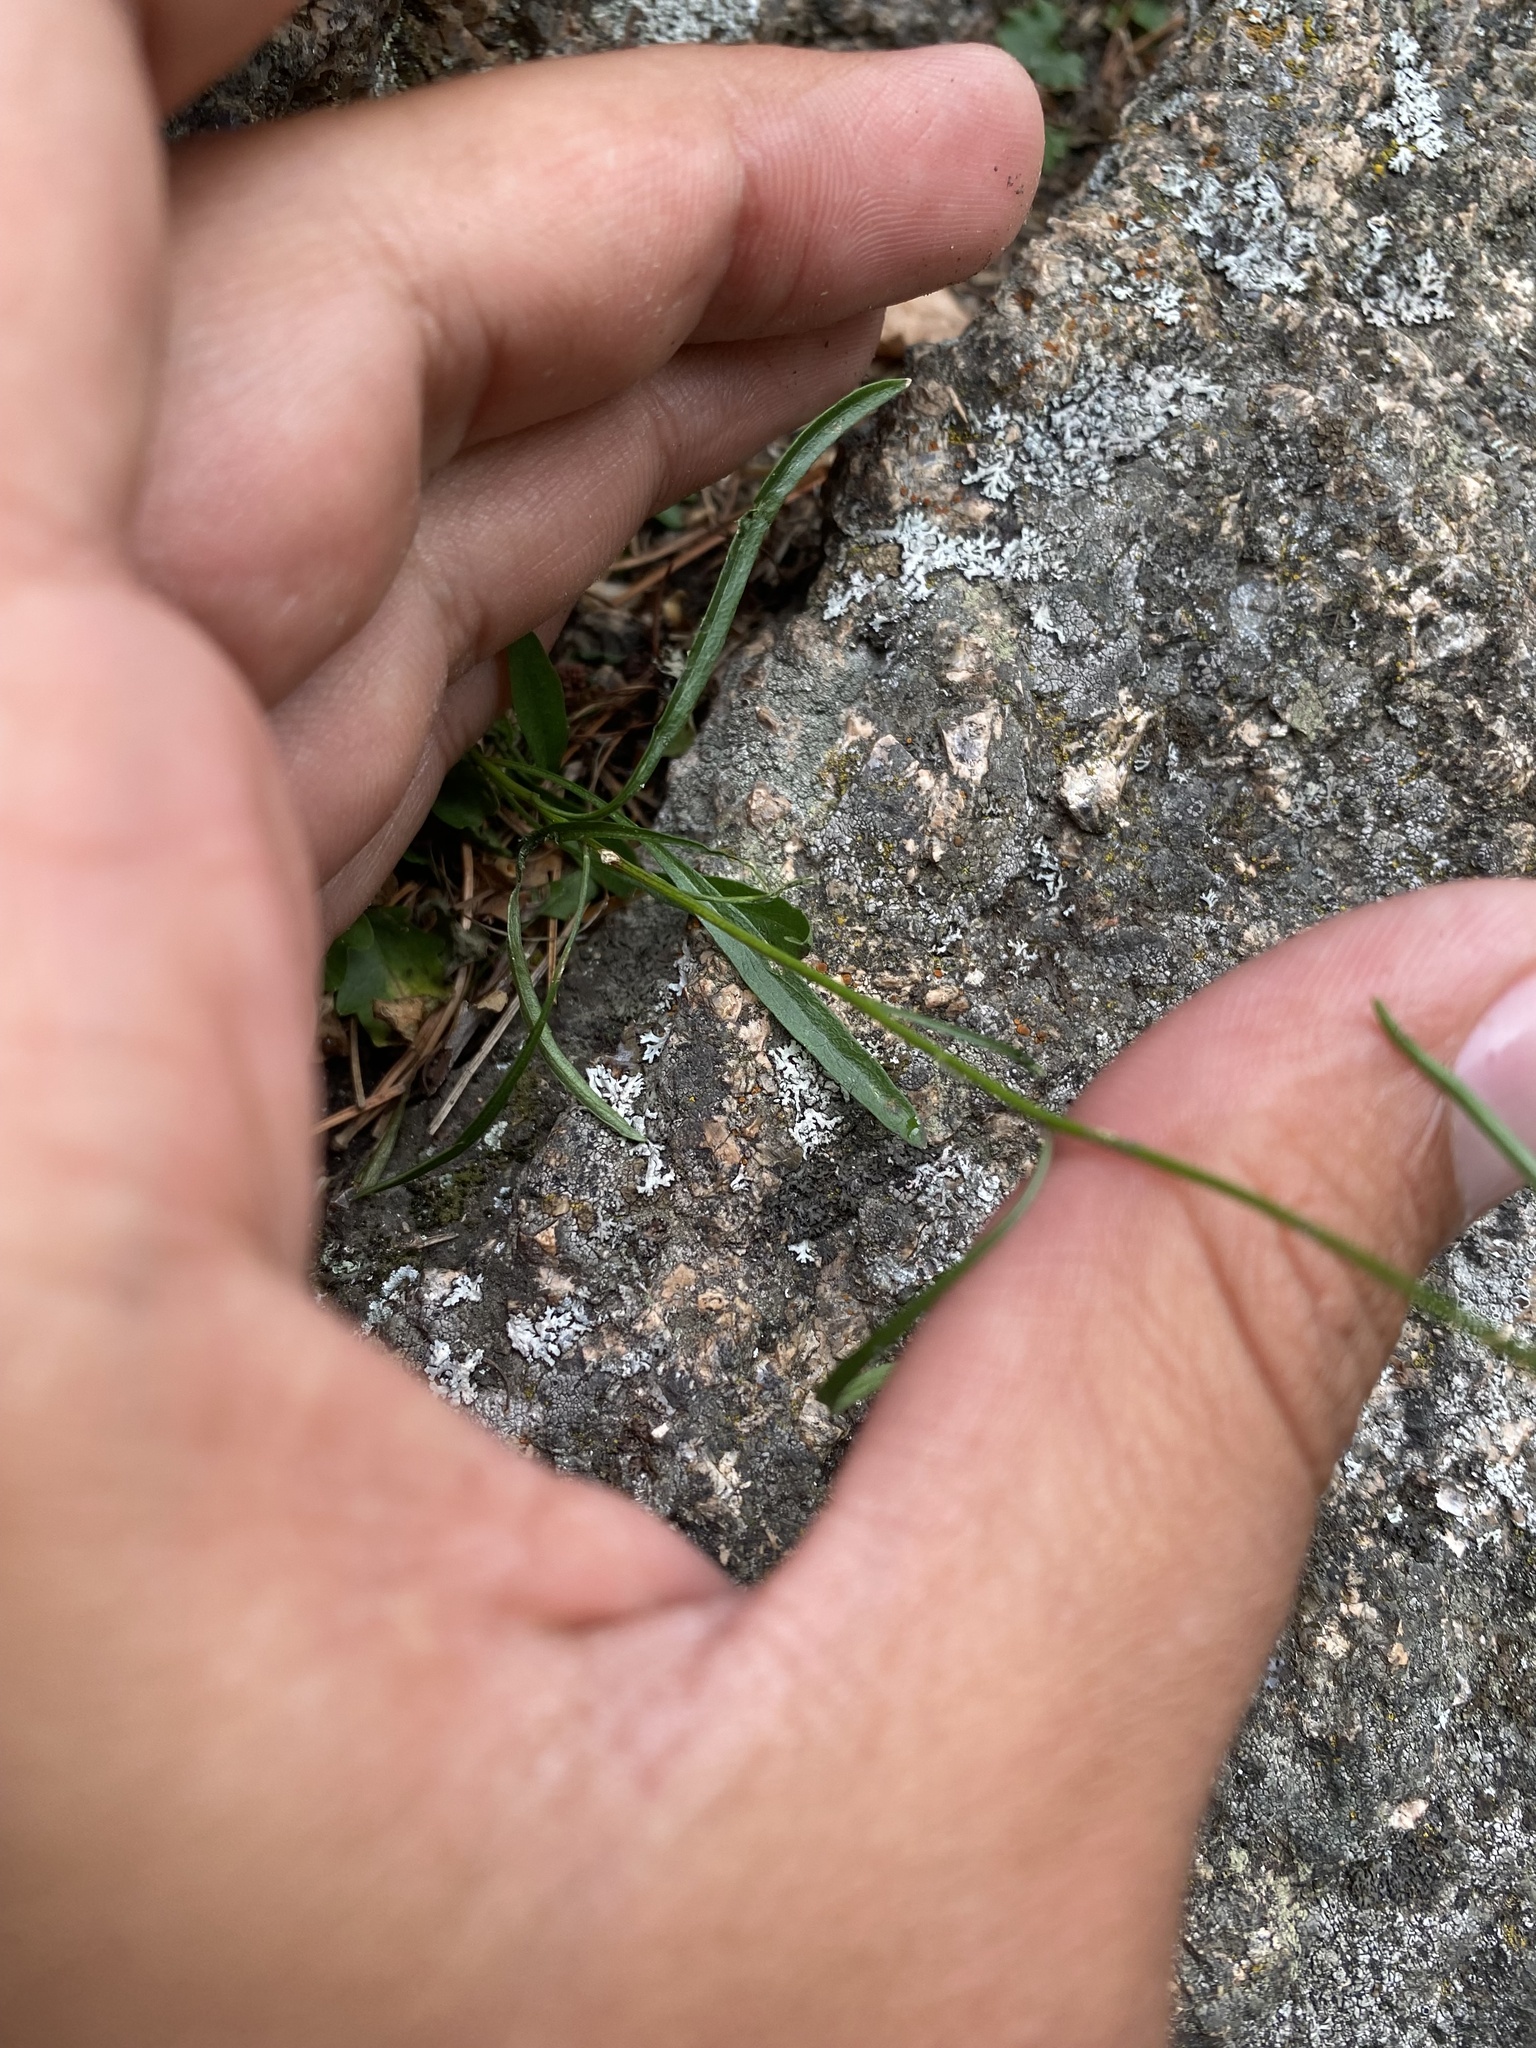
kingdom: Plantae
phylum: Tracheophyta
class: Magnoliopsida
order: Asterales
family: Campanulaceae
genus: Campanula
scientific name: Campanula rotundifolia
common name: Harebell
